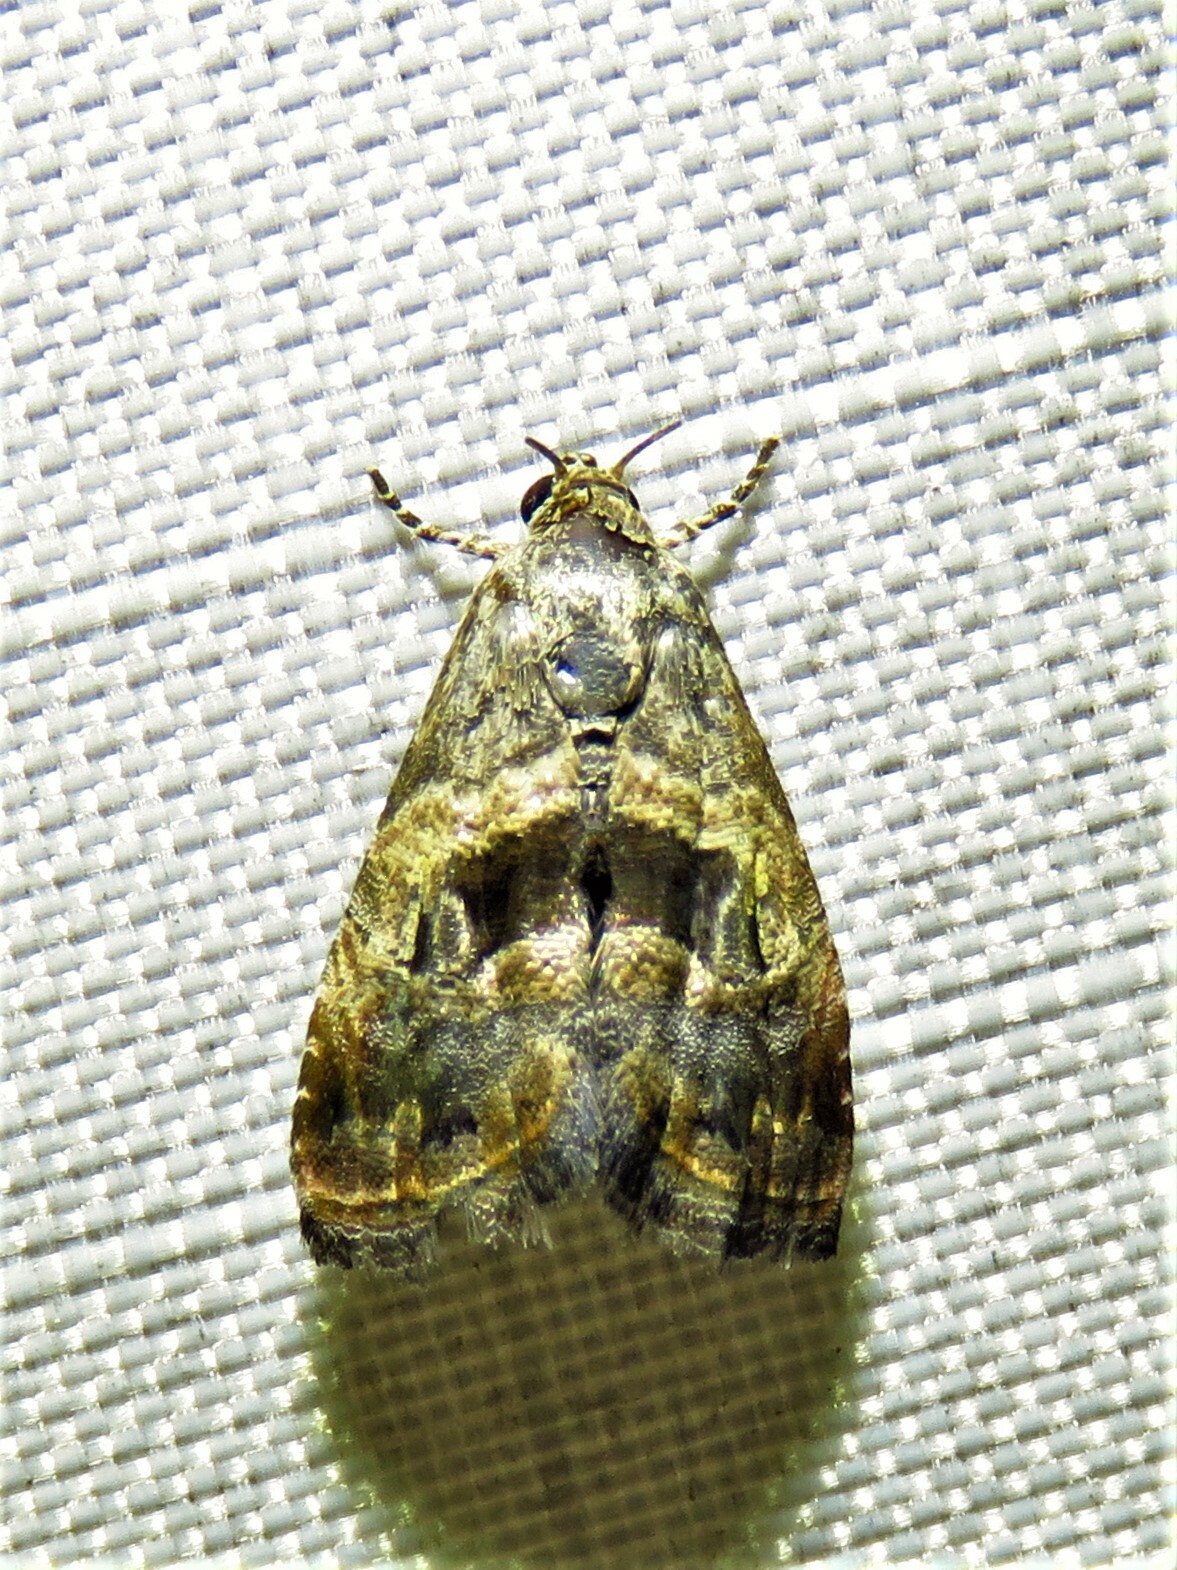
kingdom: Animalia
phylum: Arthropoda
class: Insecta
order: Lepidoptera
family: Noctuidae
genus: Tripudia
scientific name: Tripudia quadrifera
